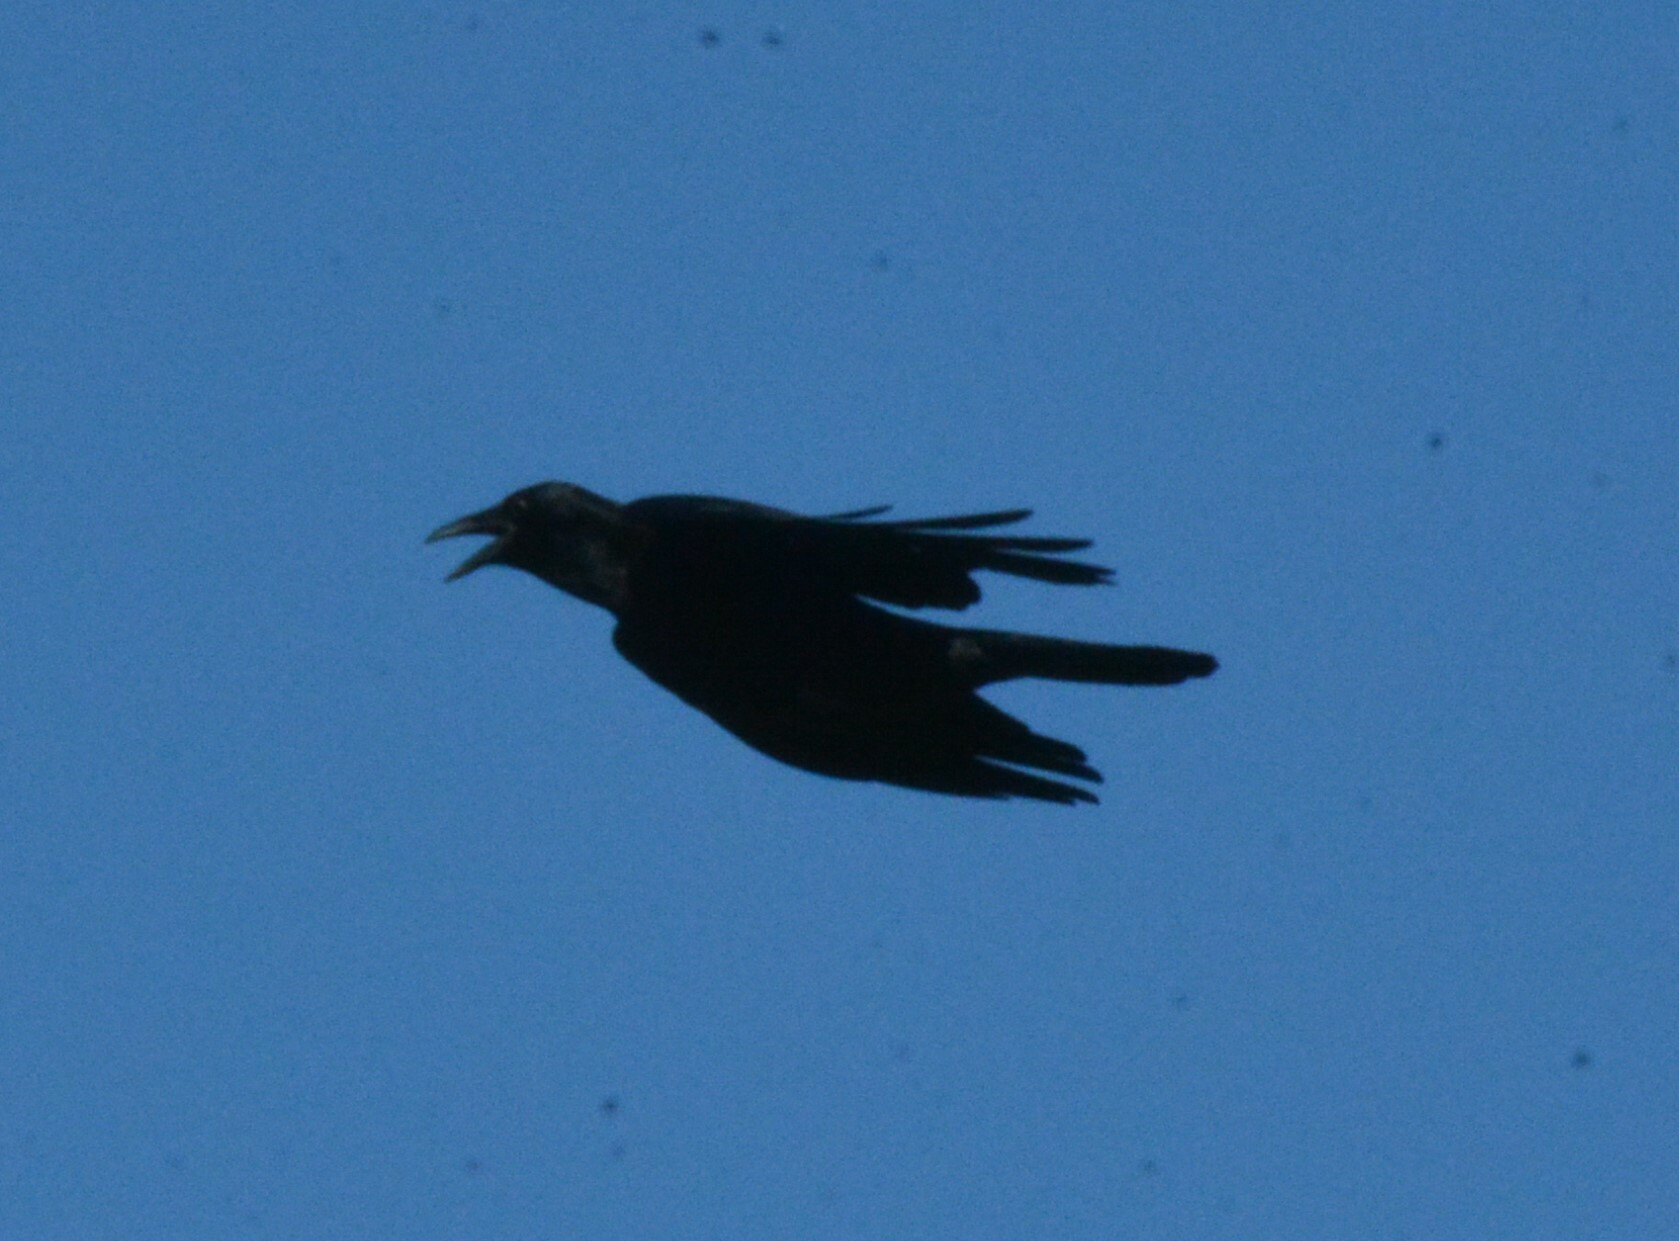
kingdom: Animalia
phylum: Chordata
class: Aves
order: Passeriformes
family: Corvidae
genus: Corvus
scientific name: Corvus brachyrhynchos
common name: American crow
